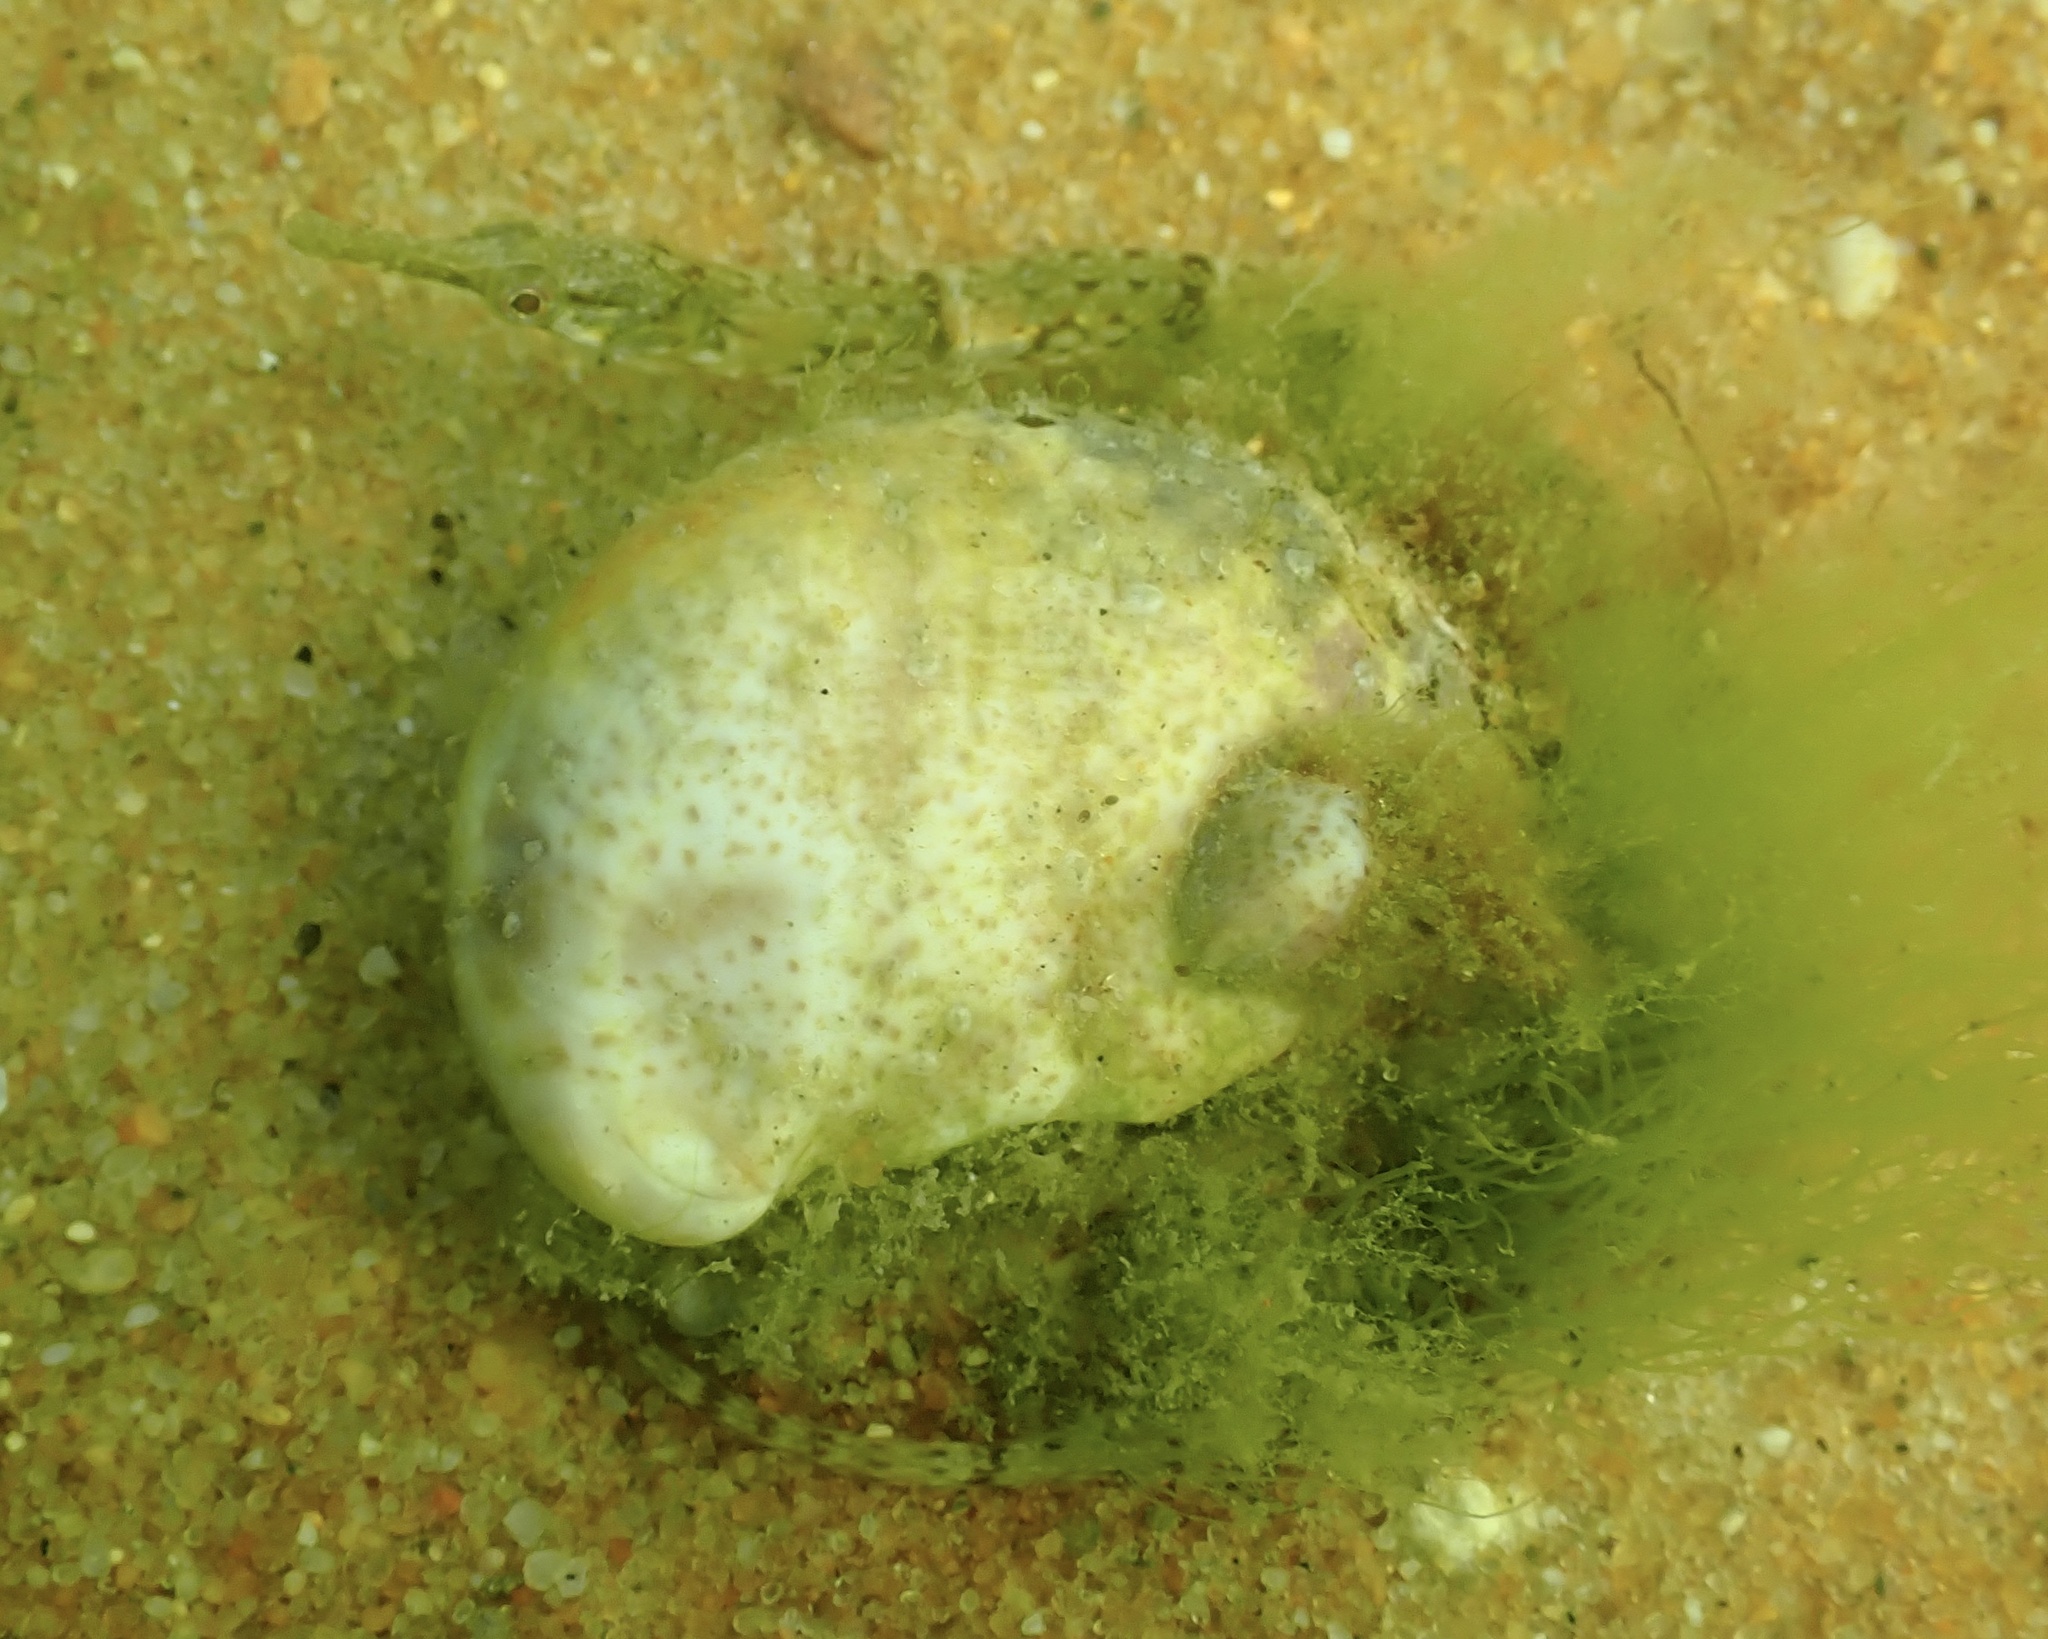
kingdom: Animalia
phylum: Chordata
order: Syngnathiformes
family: Syngnathidae
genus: Syngnathus
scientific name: Syngnathus fuscus
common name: Northern pipefish
